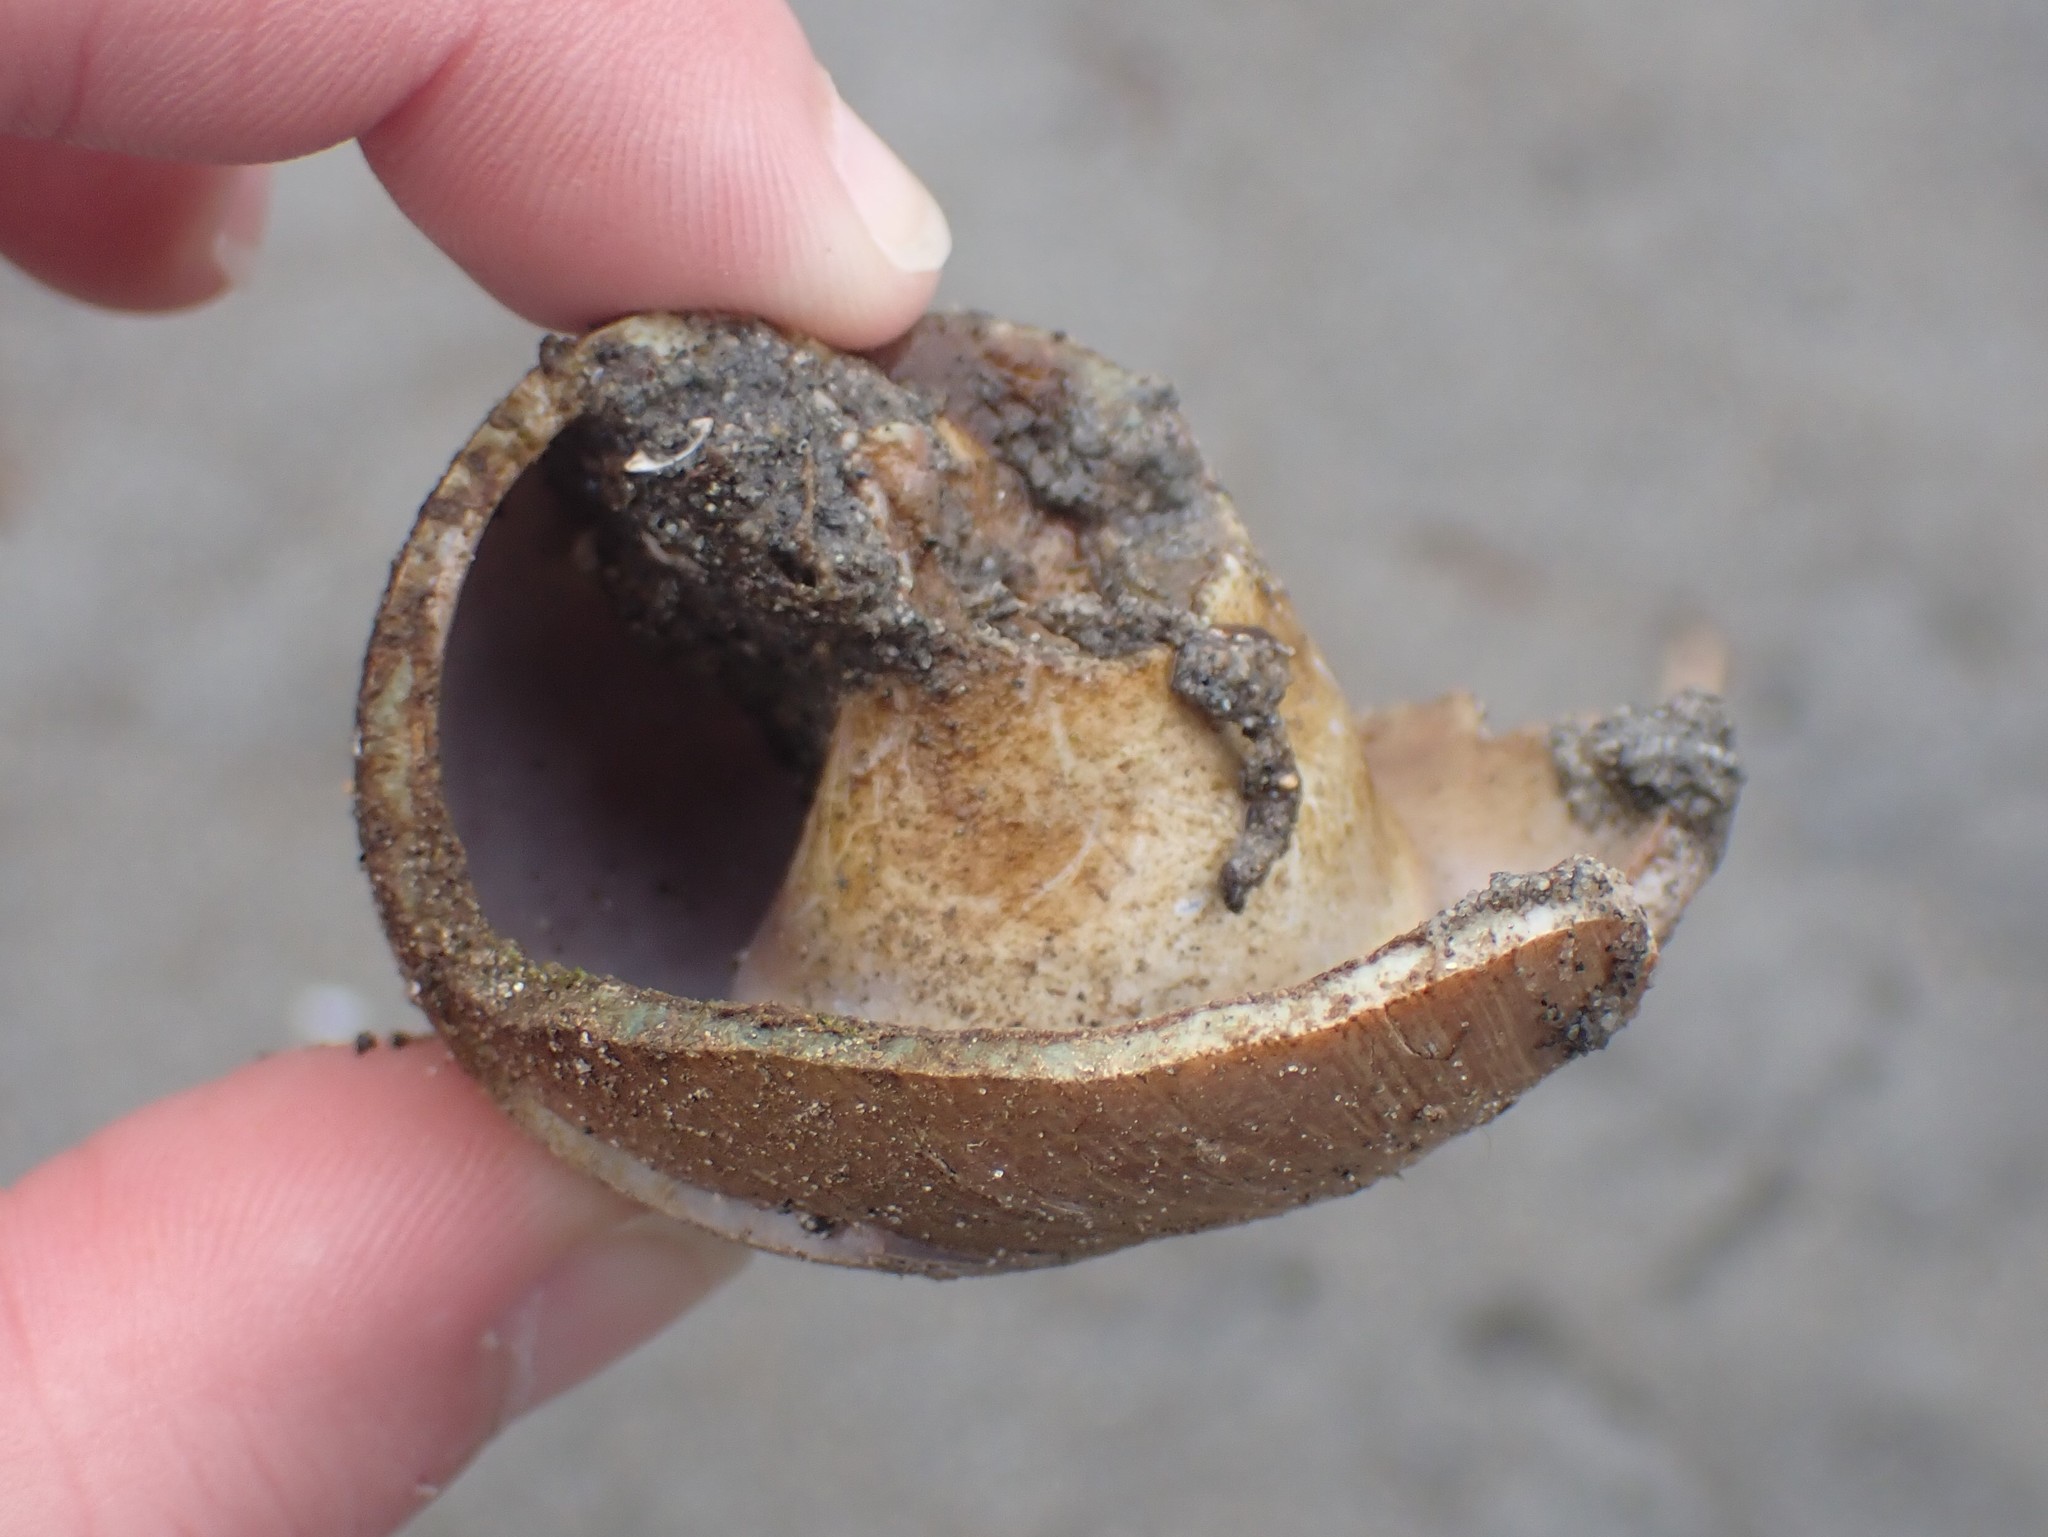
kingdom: Animalia
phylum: Mollusca
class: Gastropoda
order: Littorinimorpha
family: Naticidae
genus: Neverita
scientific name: Neverita lewisii
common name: Lewis' moonsnail
